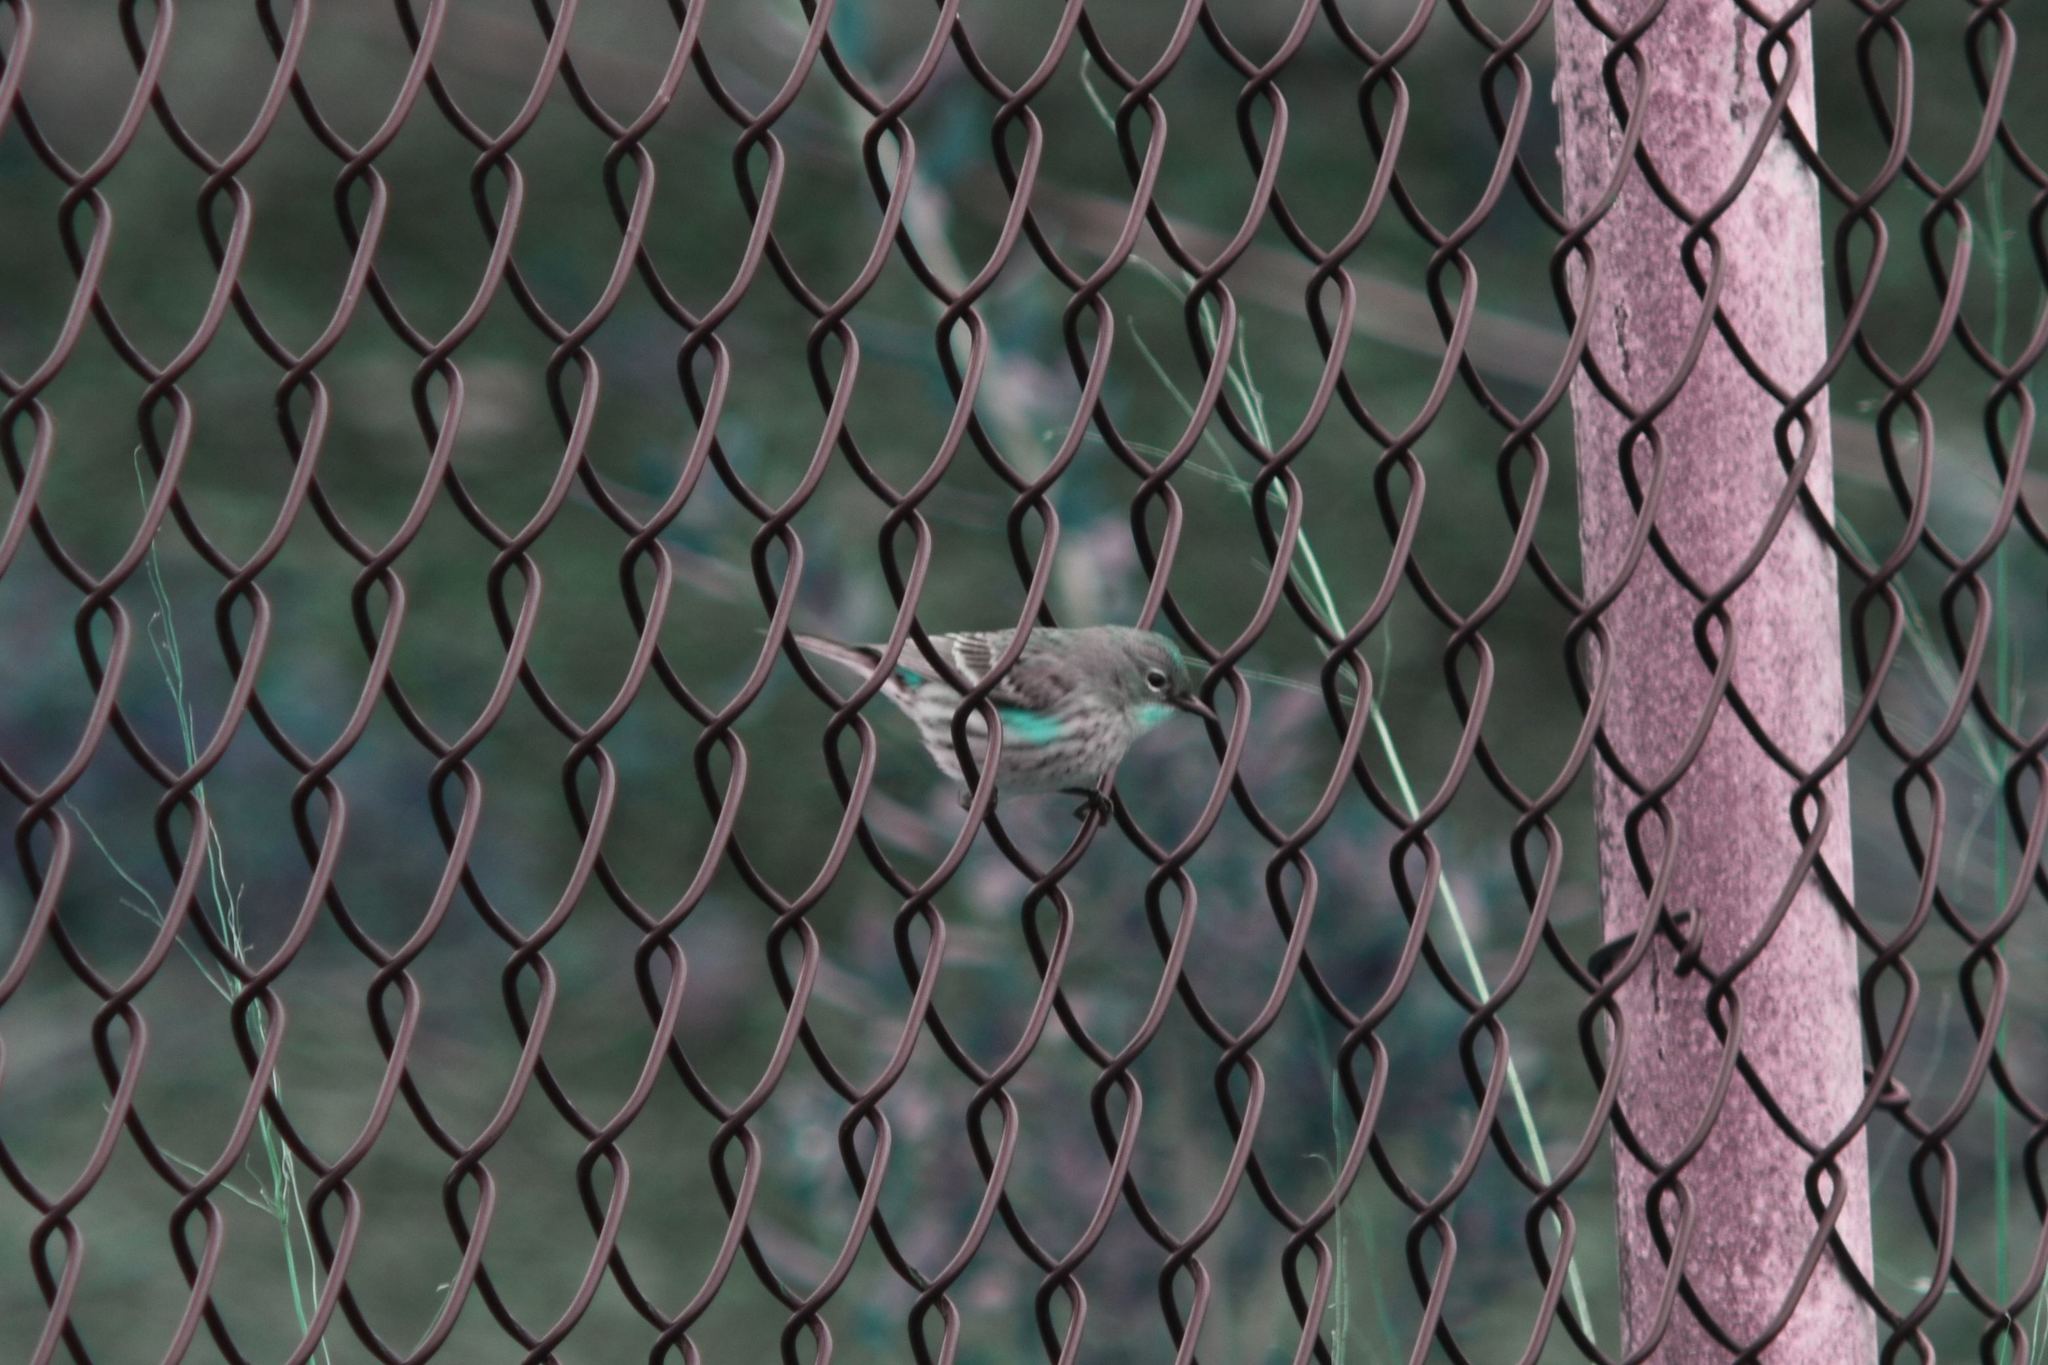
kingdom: Animalia
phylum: Chordata
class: Aves
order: Passeriformes
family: Parulidae
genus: Setophaga
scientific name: Setophaga coronata
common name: Myrtle warbler
